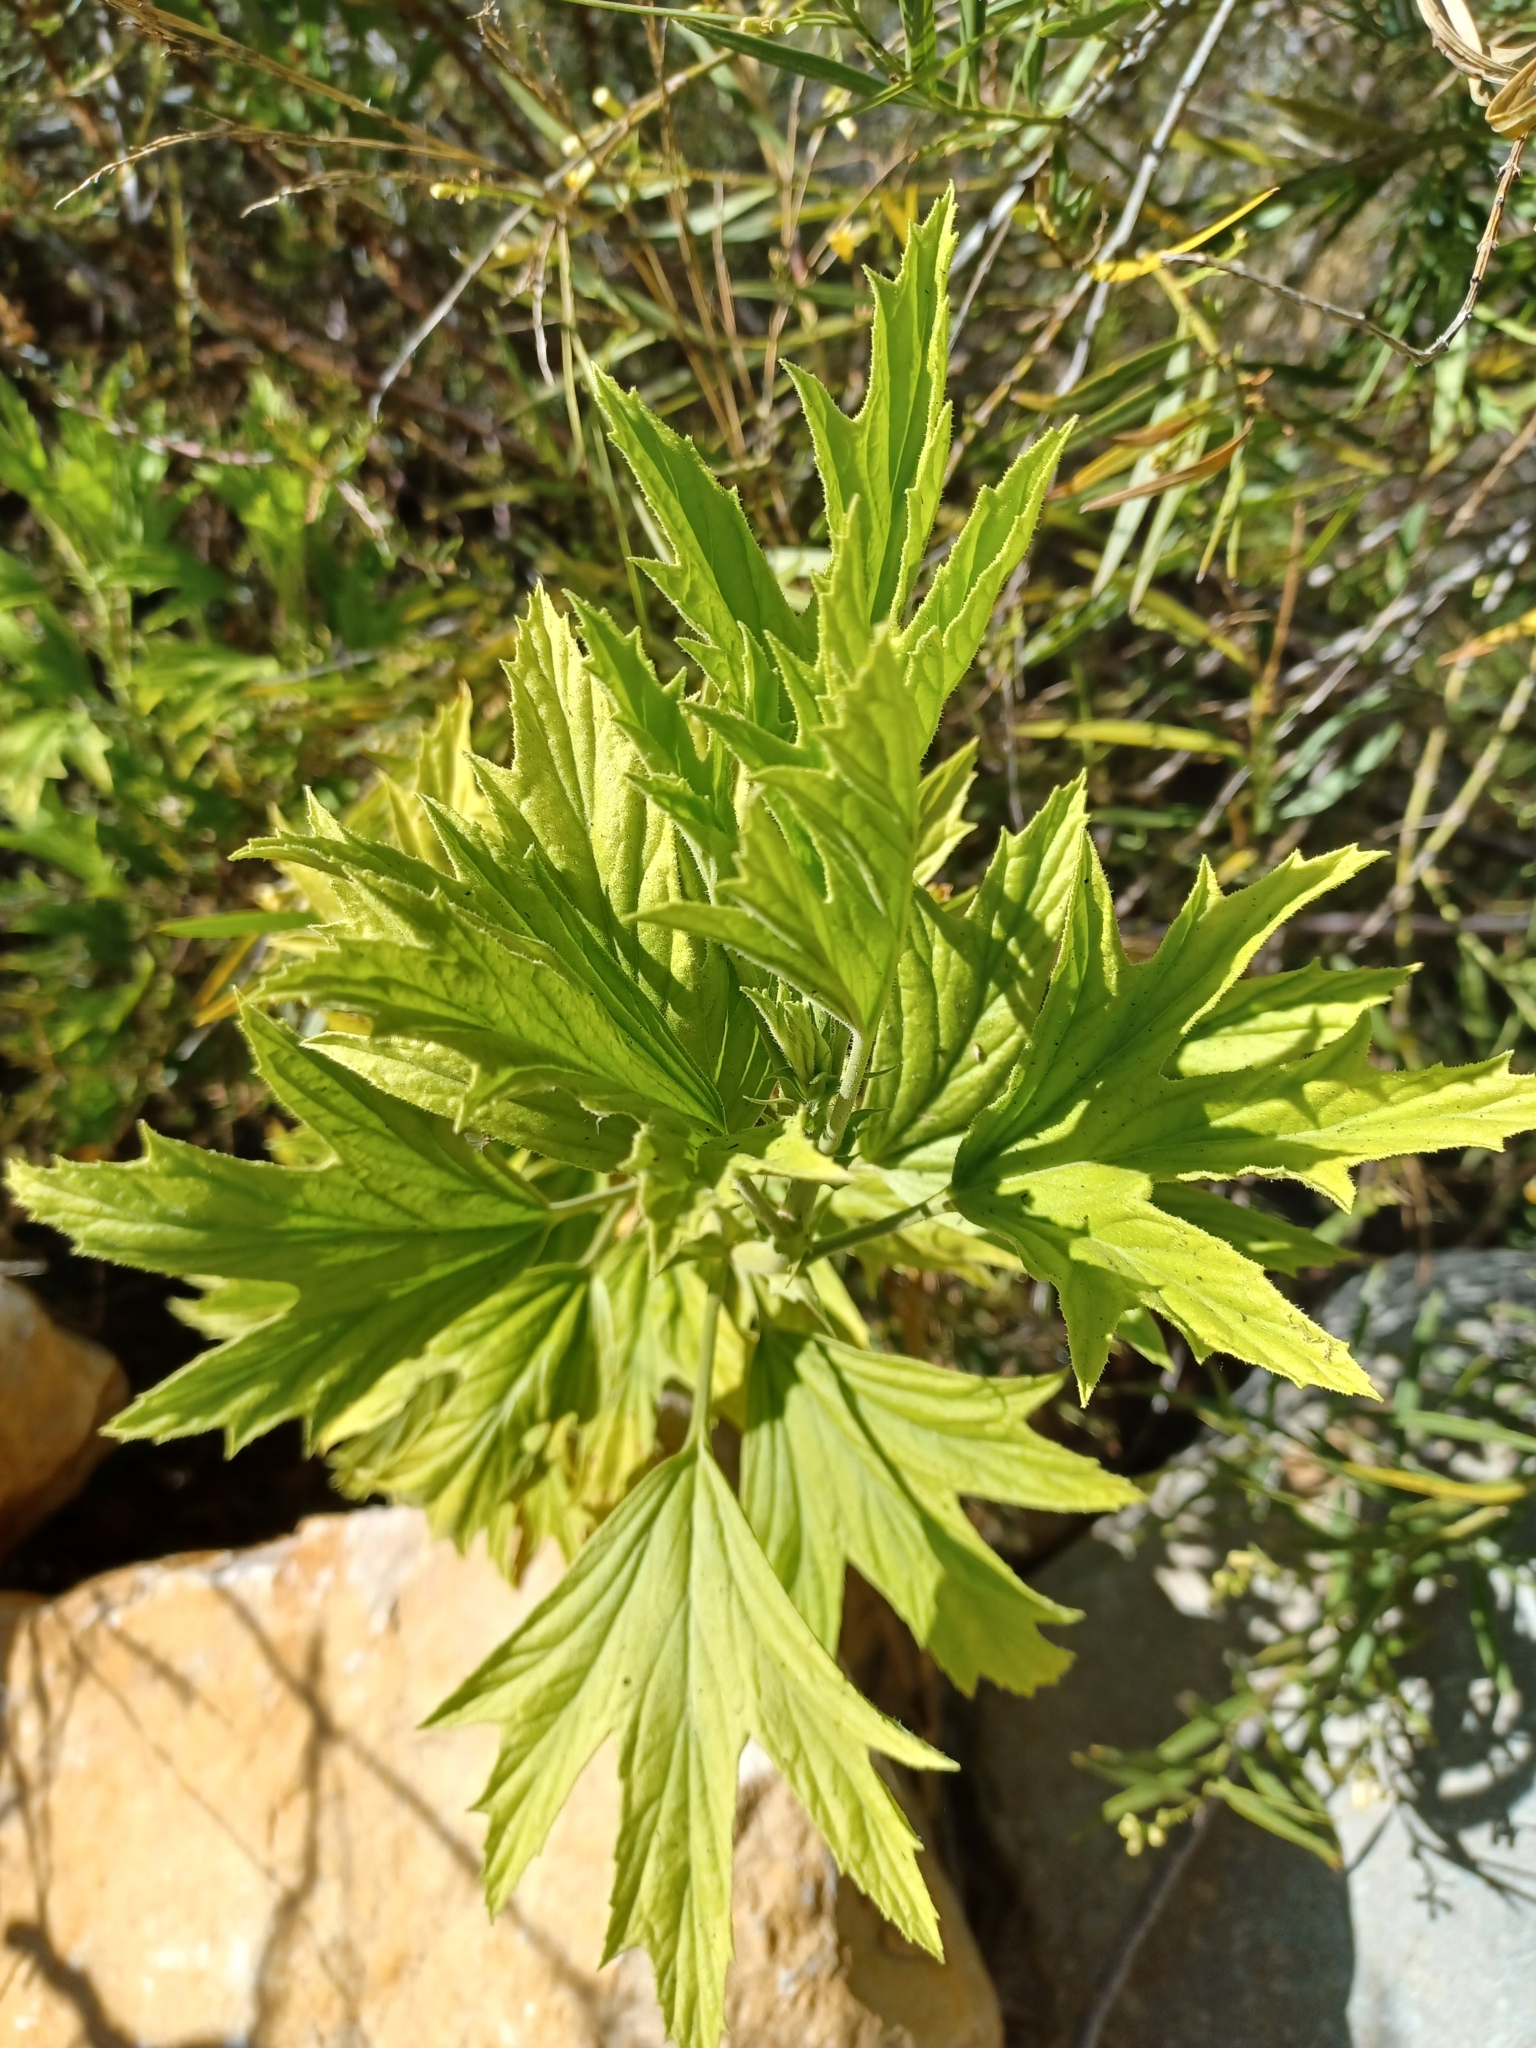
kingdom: Plantae
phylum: Tracheophyta
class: Magnoliopsida
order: Geraniales
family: Geraniaceae
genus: Pelargonium
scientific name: Pelargonium citronellum
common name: Lemon-scent pelargonium
